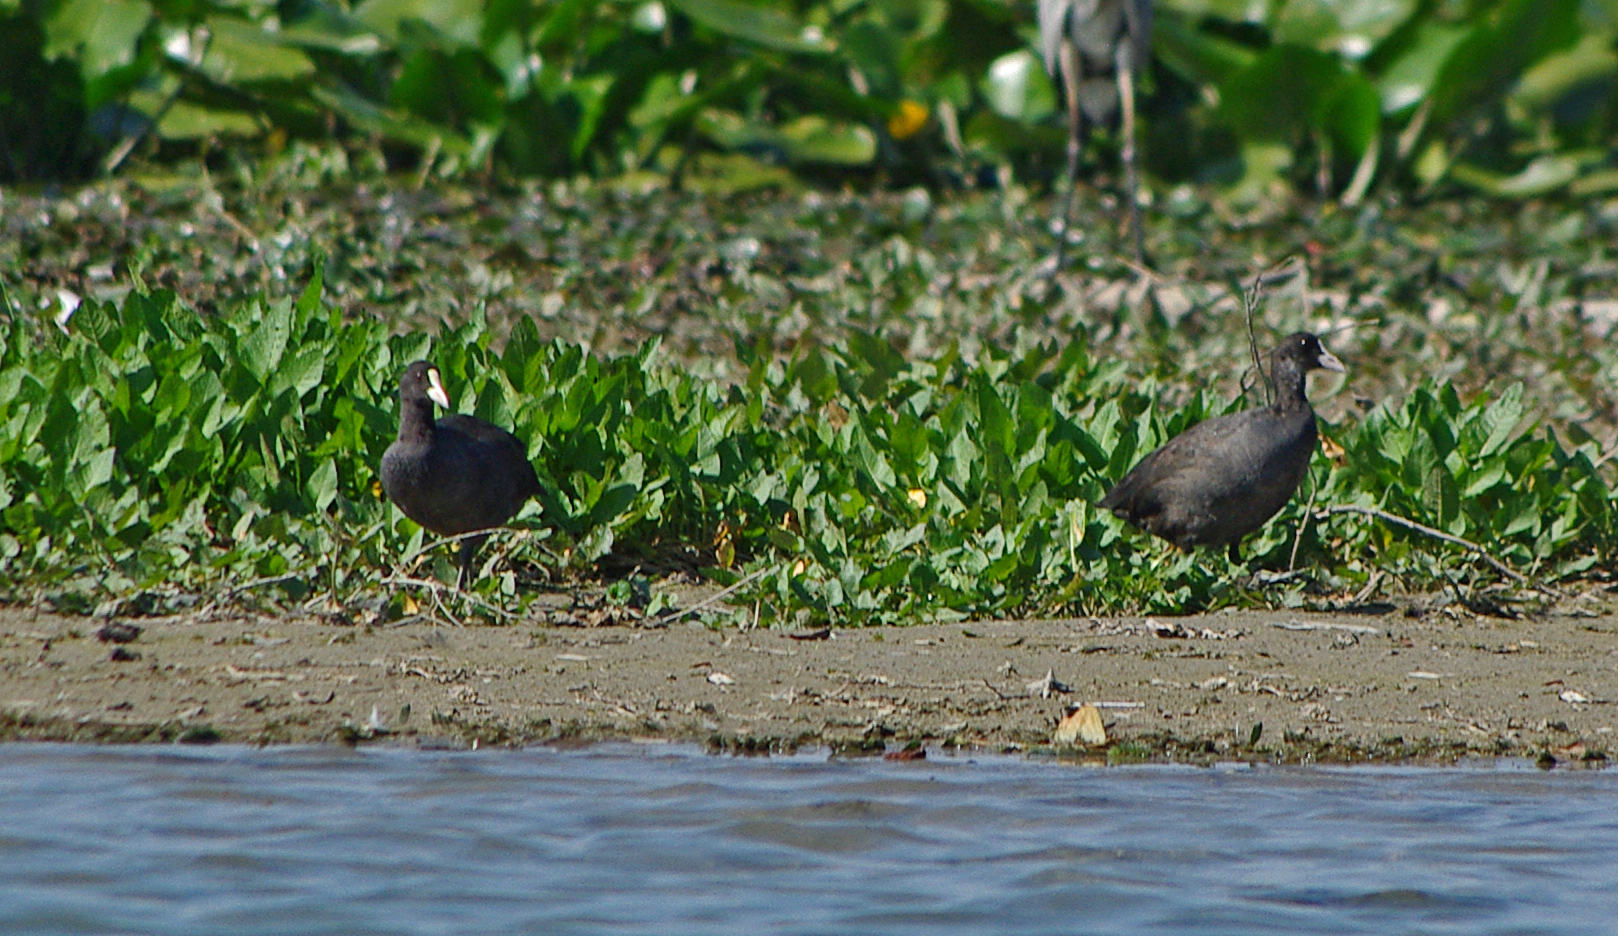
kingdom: Animalia
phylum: Chordata
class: Aves
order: Gruiformes
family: Rallidae
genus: Fulica
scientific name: Fulica atra
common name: Eurasian coot
